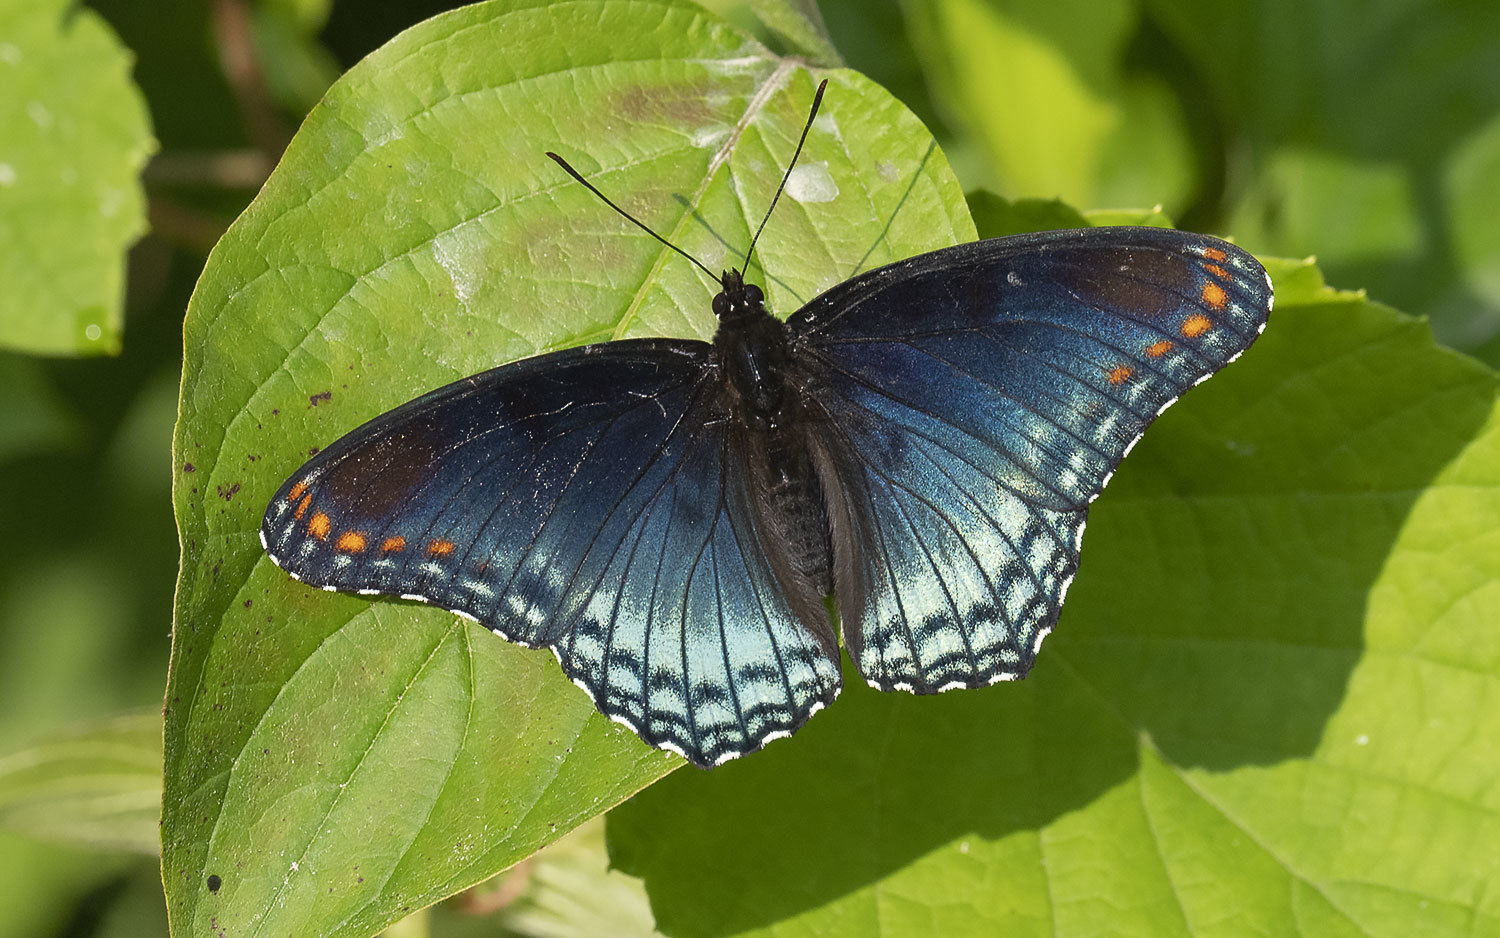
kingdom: Animalia
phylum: Arthropoda
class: Insecta
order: Lepidoptera
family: Nymphalidae
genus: Limenitis
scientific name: Limenitis astyanax
